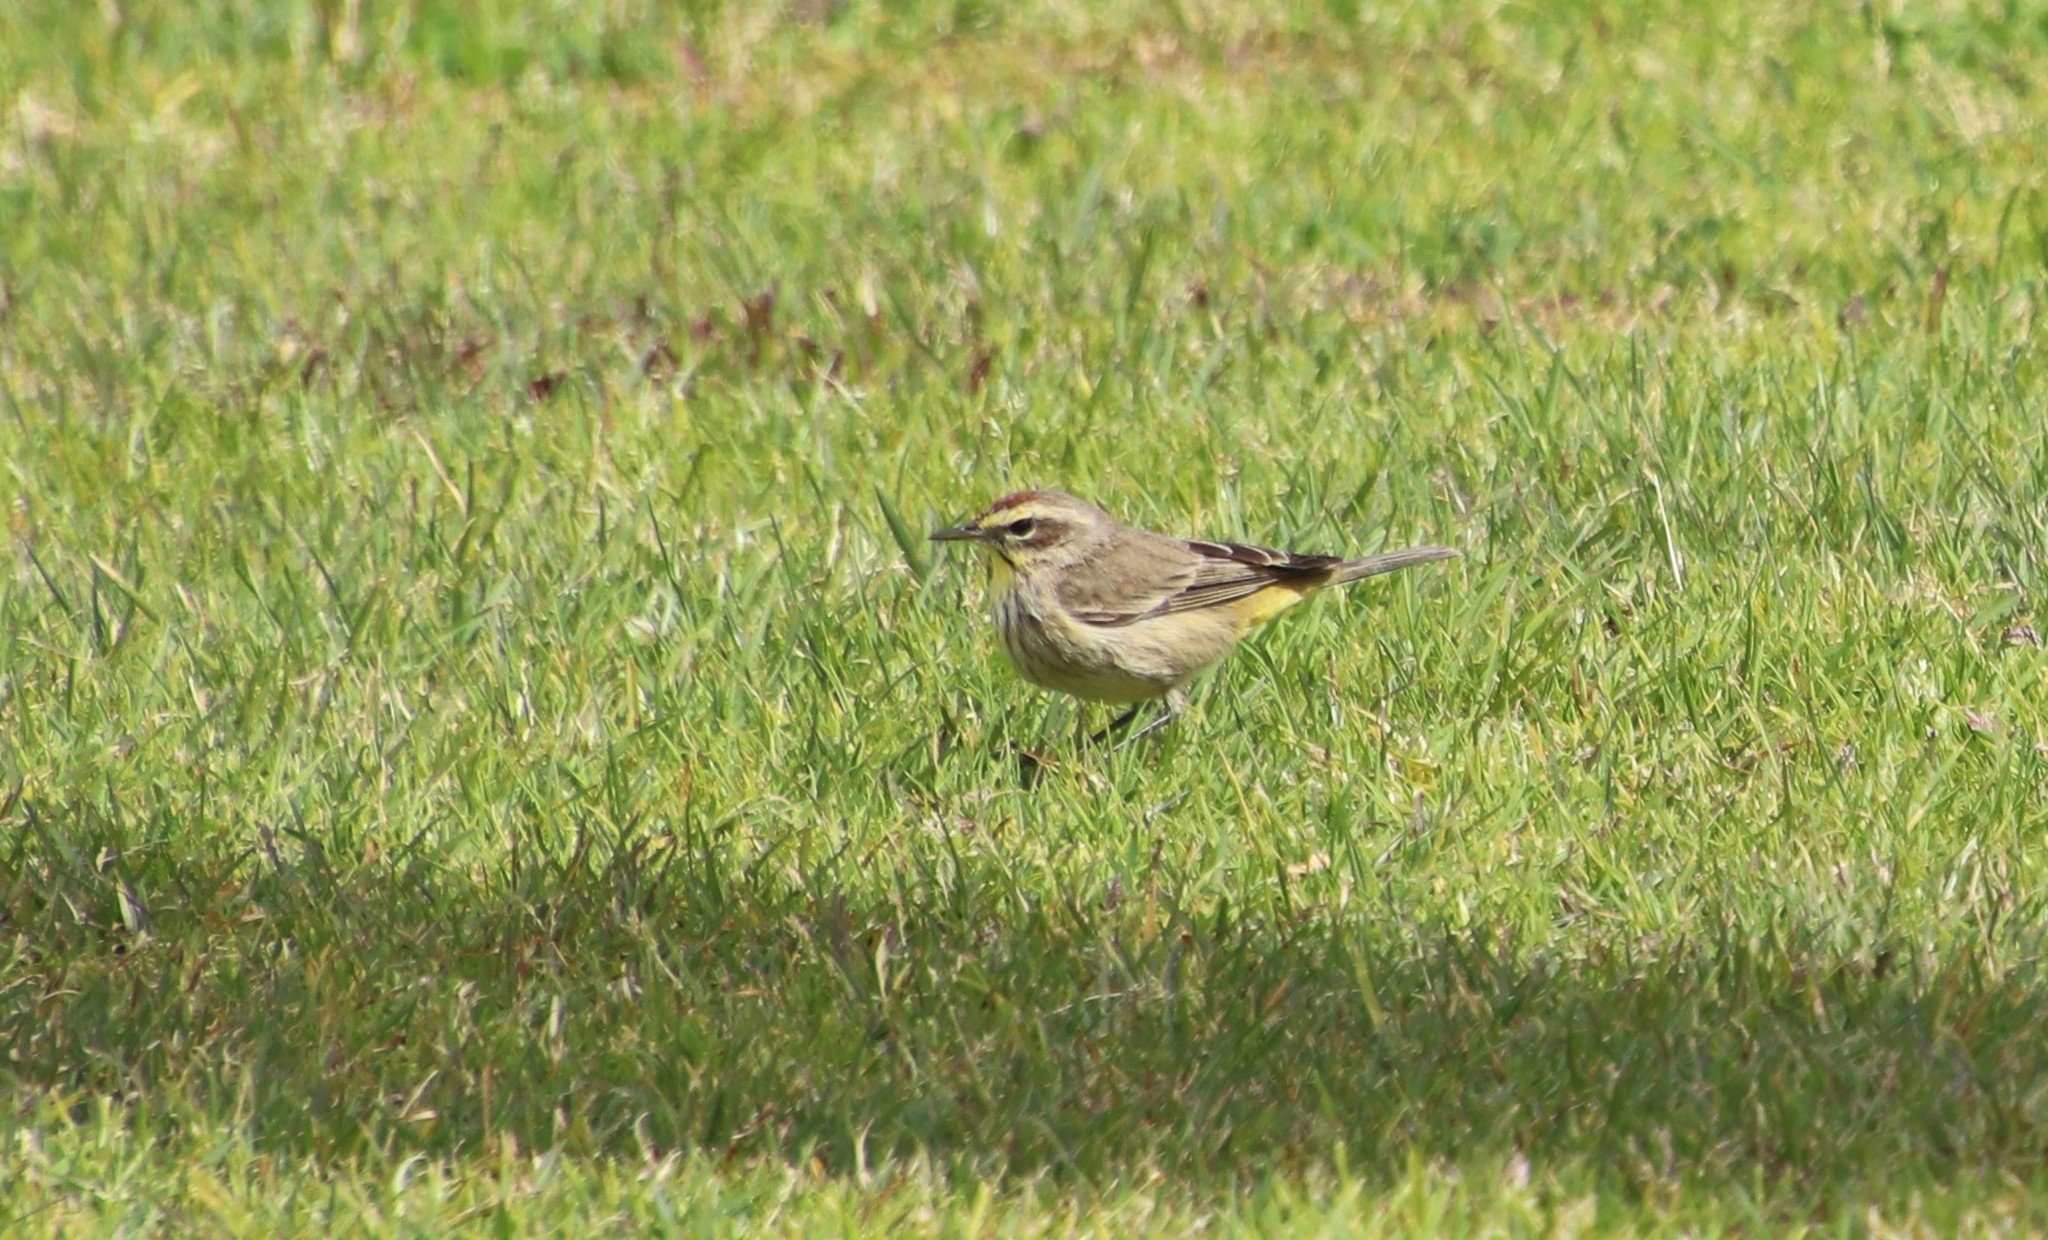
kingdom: Animalia
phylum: Chordata
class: Aves
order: Passeriformes
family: Parulidae
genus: Setophaga
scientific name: Setophaga palmarum
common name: Palm warbler
